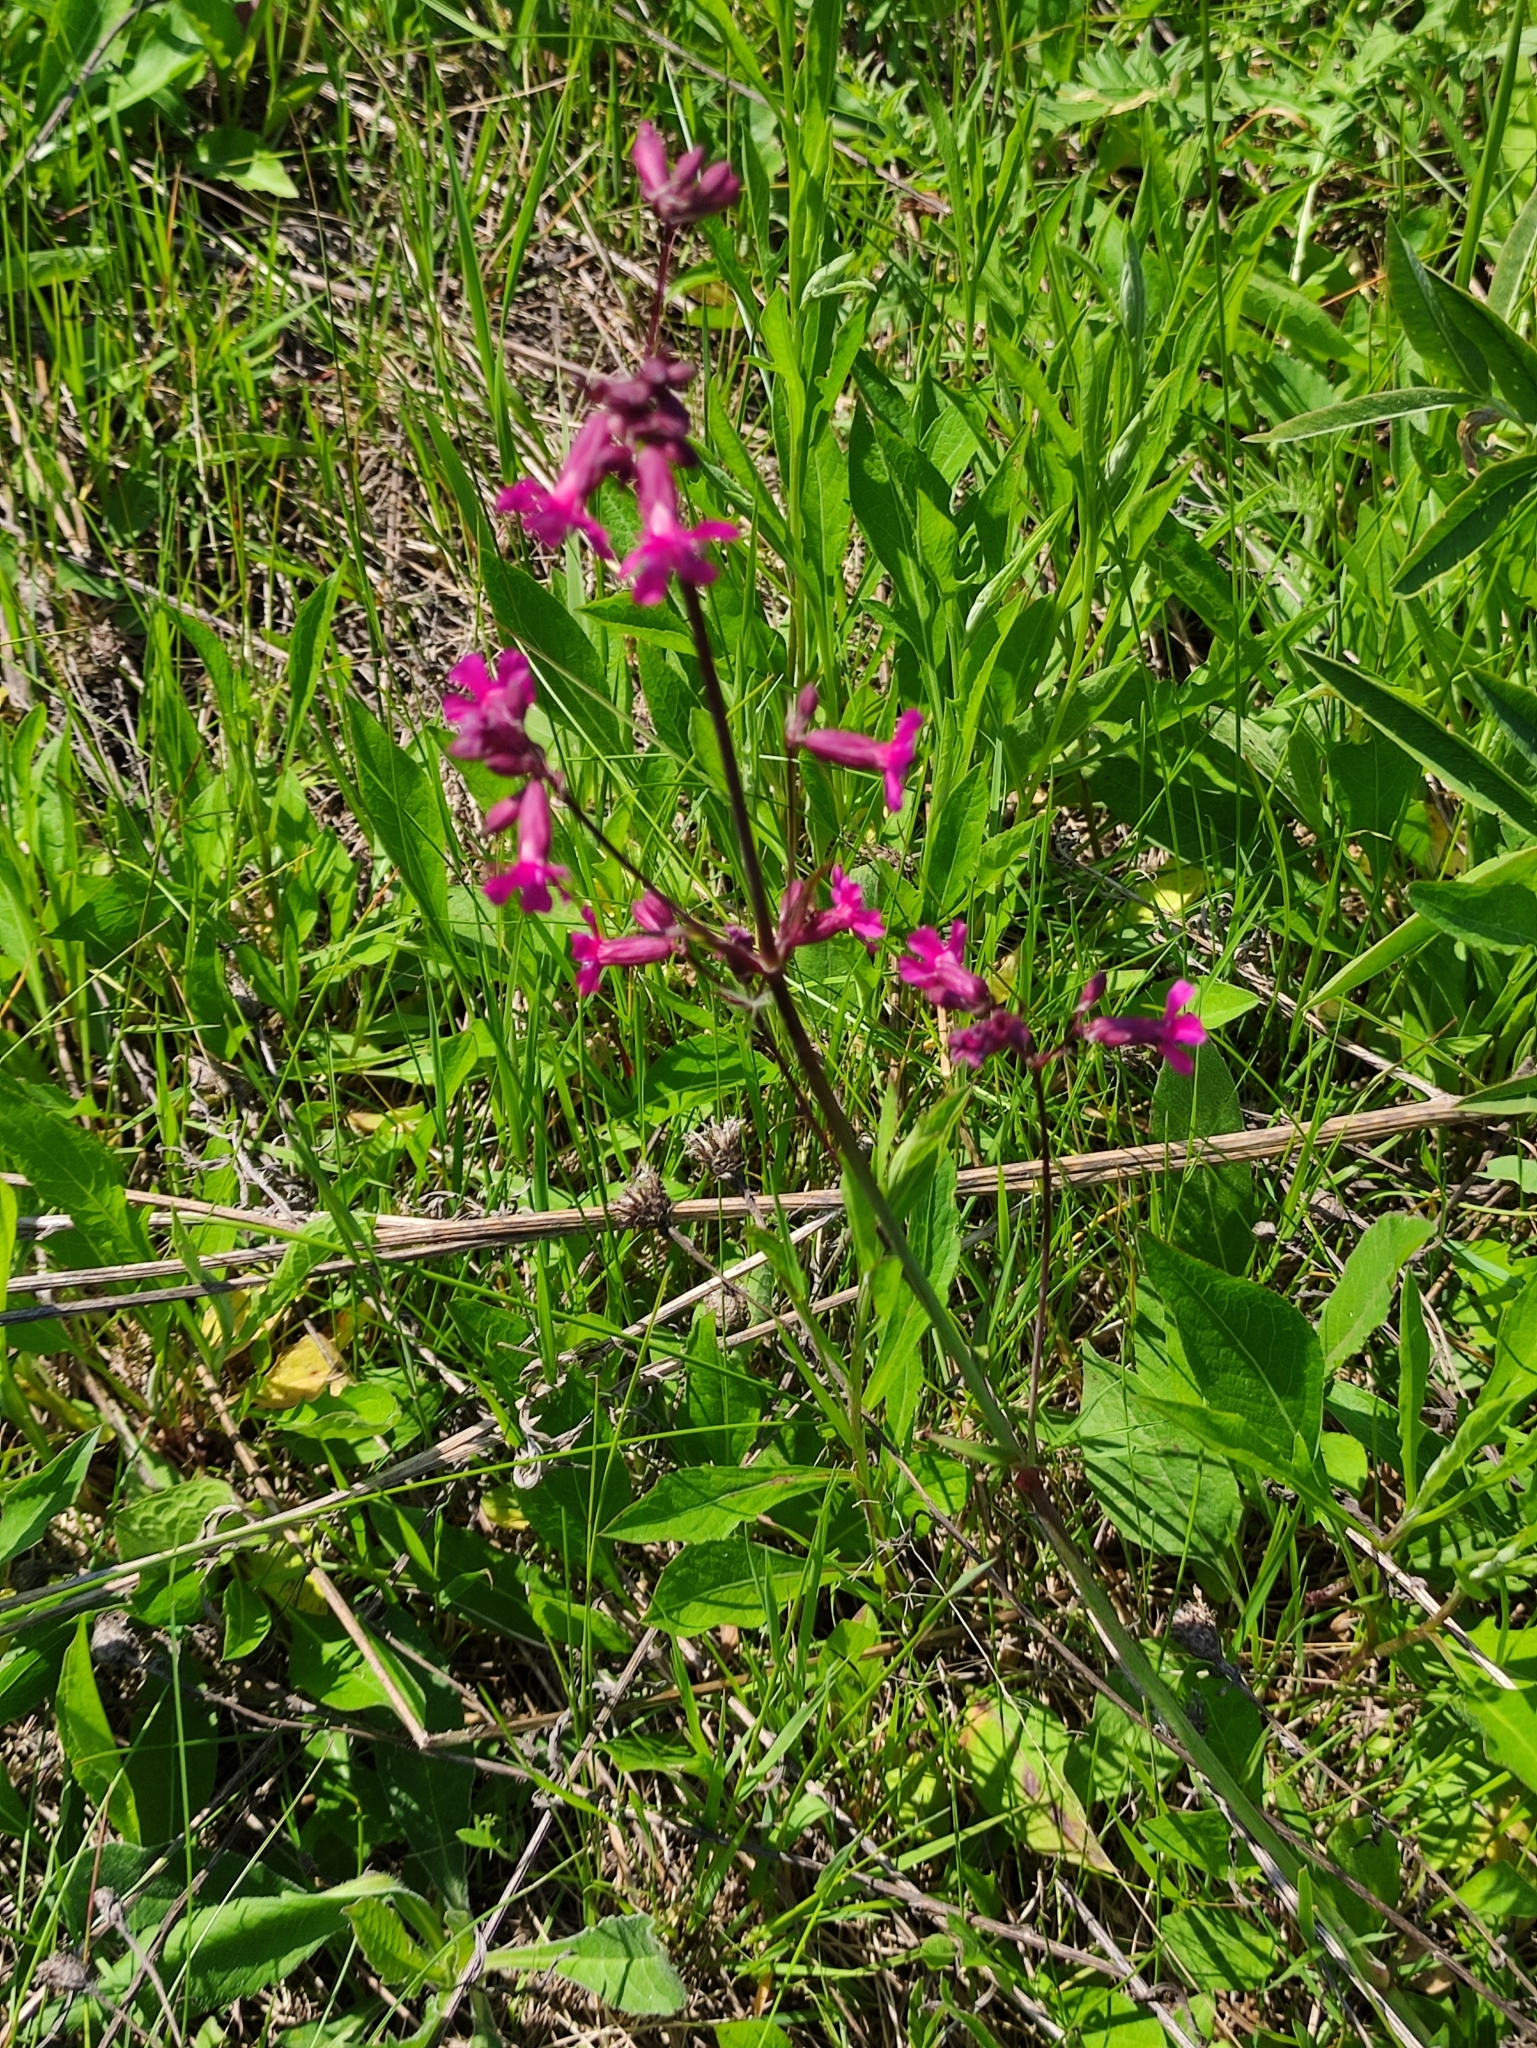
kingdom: Plantae
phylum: Tracheophyta
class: Magnoliopsida
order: Caryophyllales
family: Caryophyllaceae
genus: Viscaria
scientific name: Viscaria vulgaris
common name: Clammy campion
